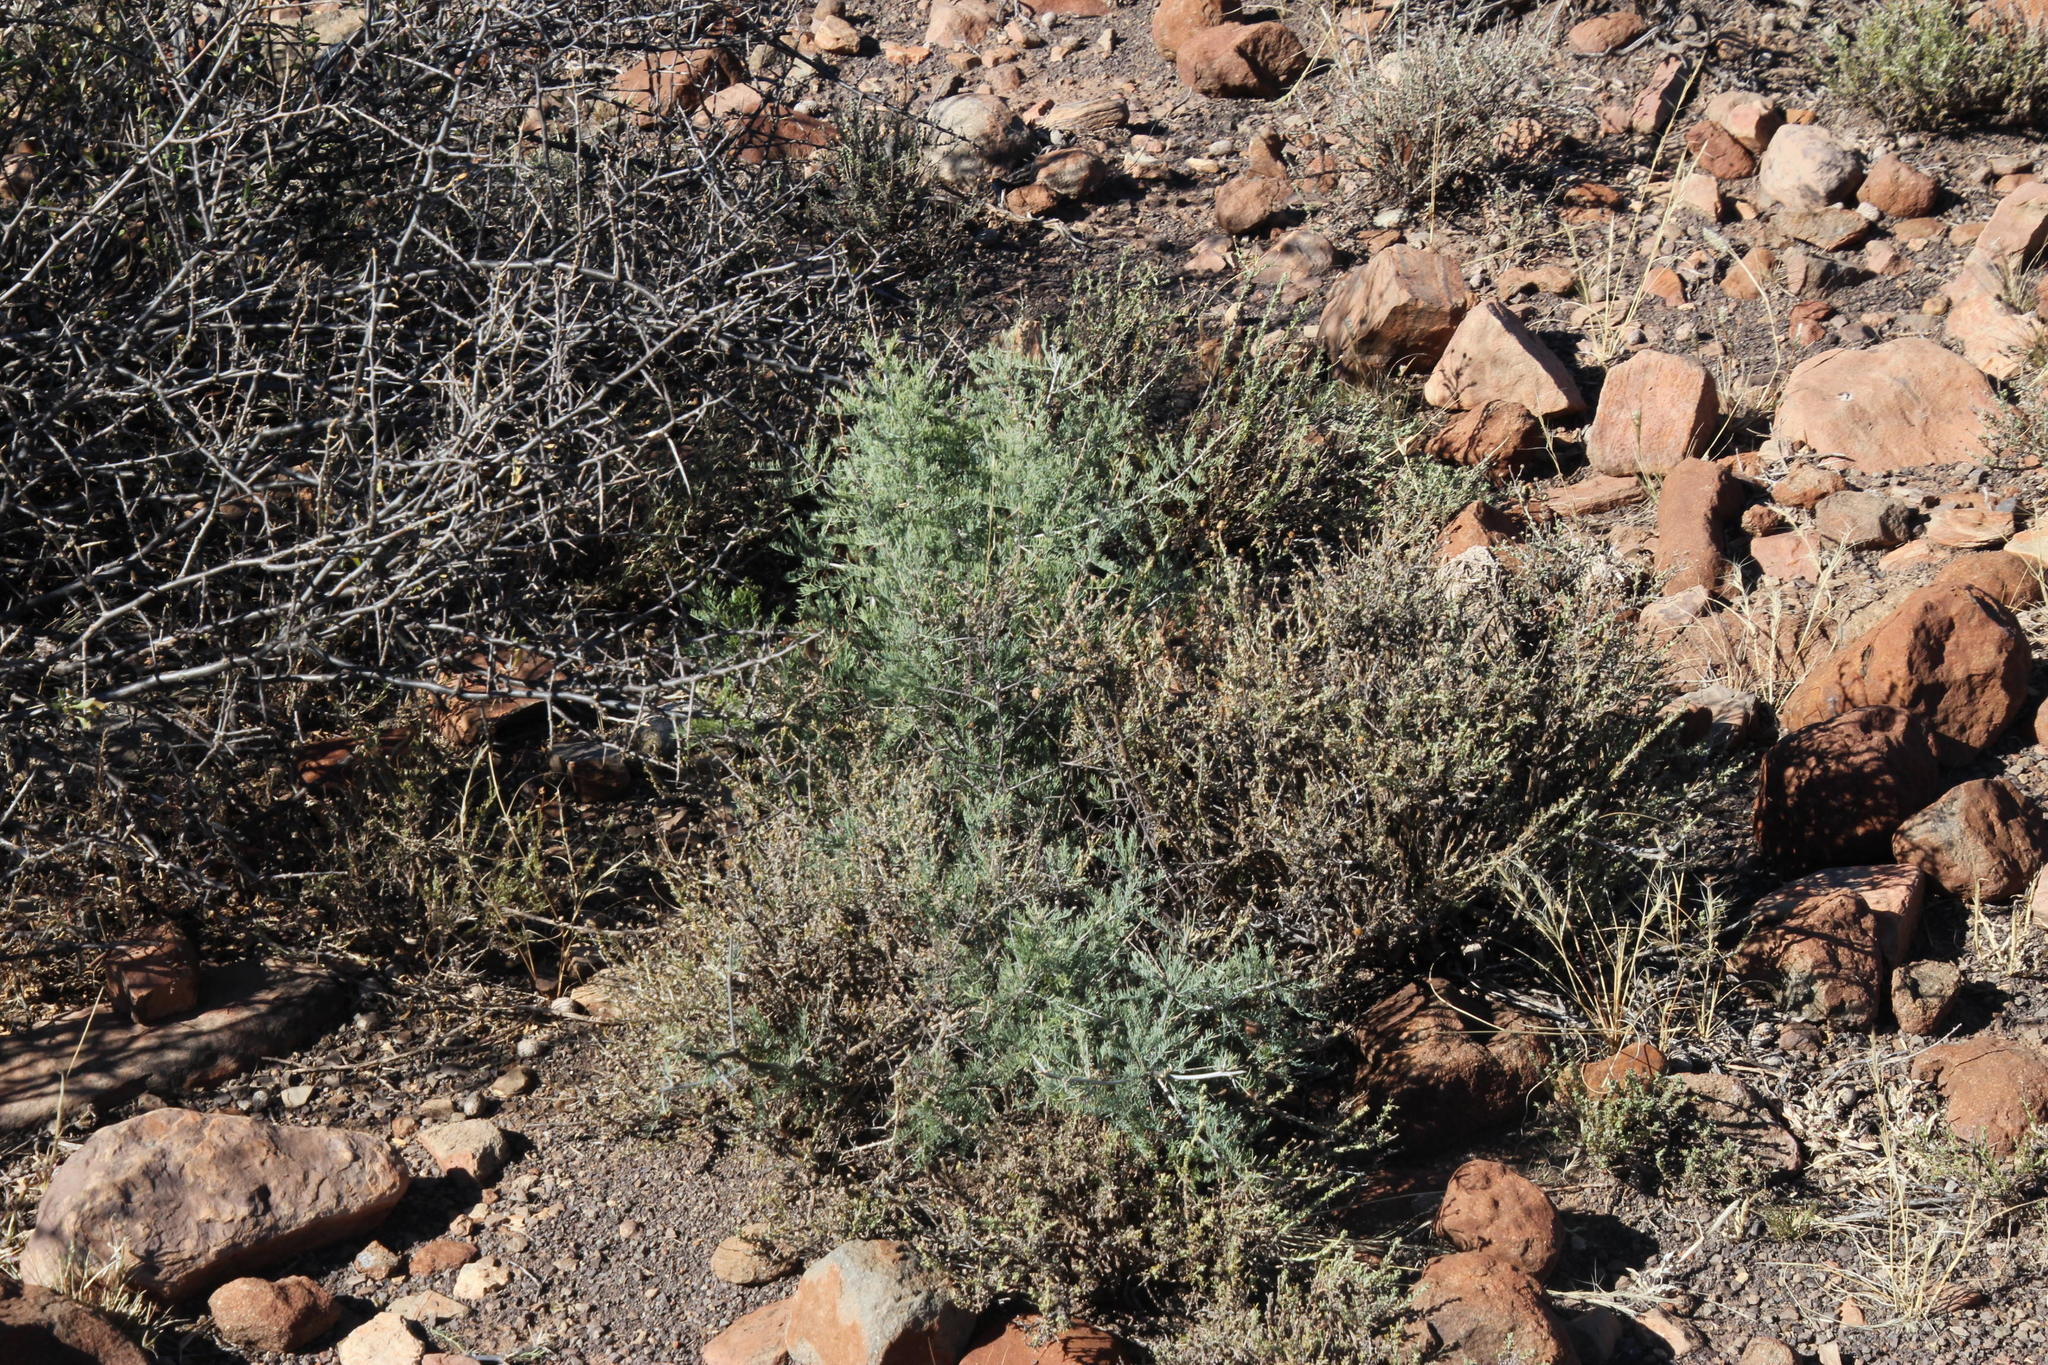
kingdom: Plantae
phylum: Tracheophyta
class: Liliopsida
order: Asparagales
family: Asparagaceae
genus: Asparagus
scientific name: Asparagus glaucus
